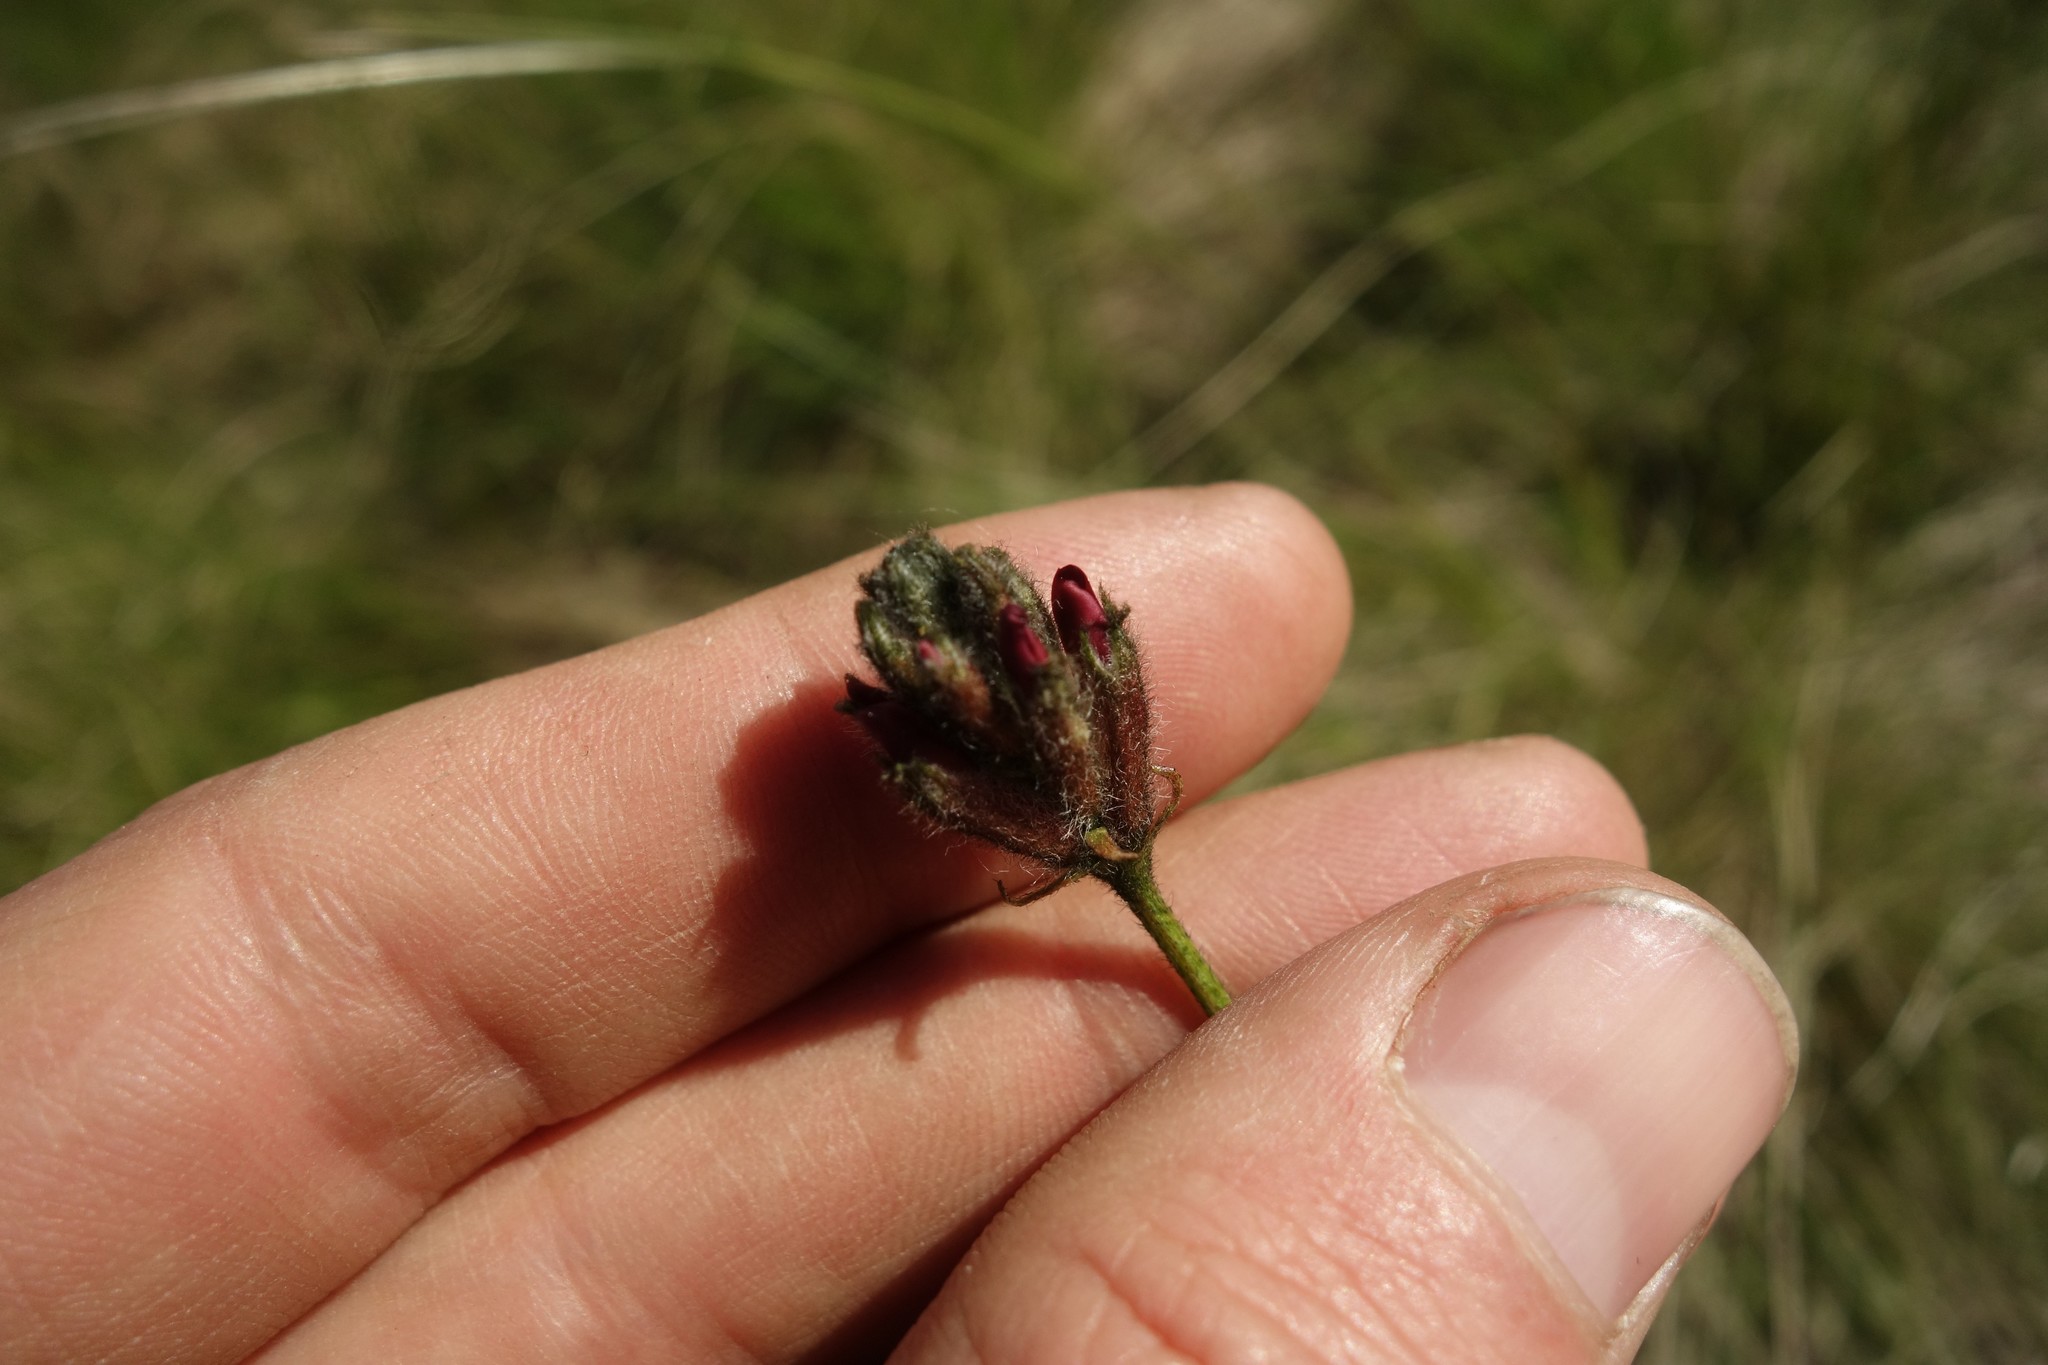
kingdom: Plantae
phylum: Tracheophyta
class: Magnoliopsida
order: Fabales
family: Fabaceae
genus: Astragalus
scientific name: Astragalus cornutus
